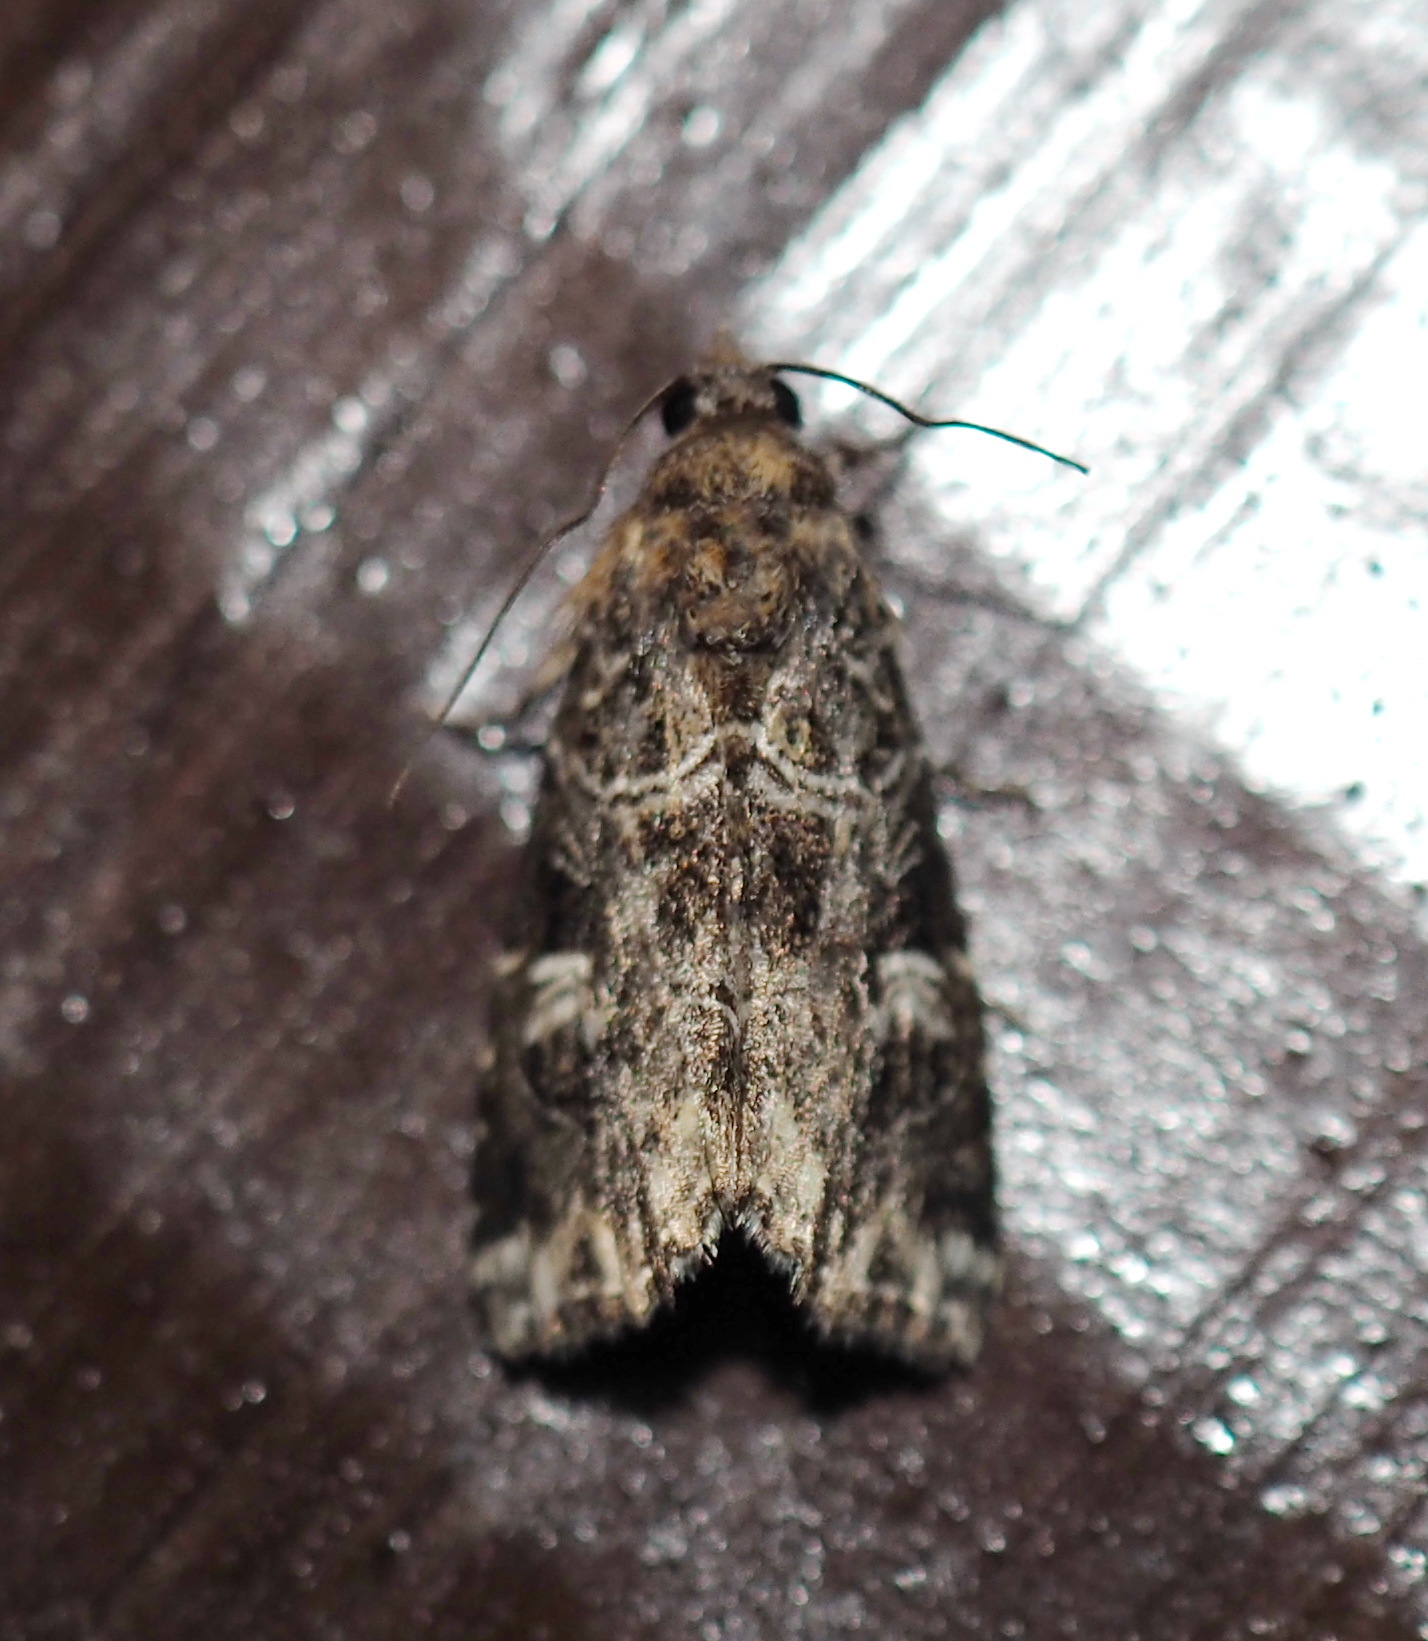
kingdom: Animalia
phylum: Arthropoda
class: Insecta
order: Lepidoptera
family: Noctuidae
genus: Callopistria
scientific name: Callopistria delicata
